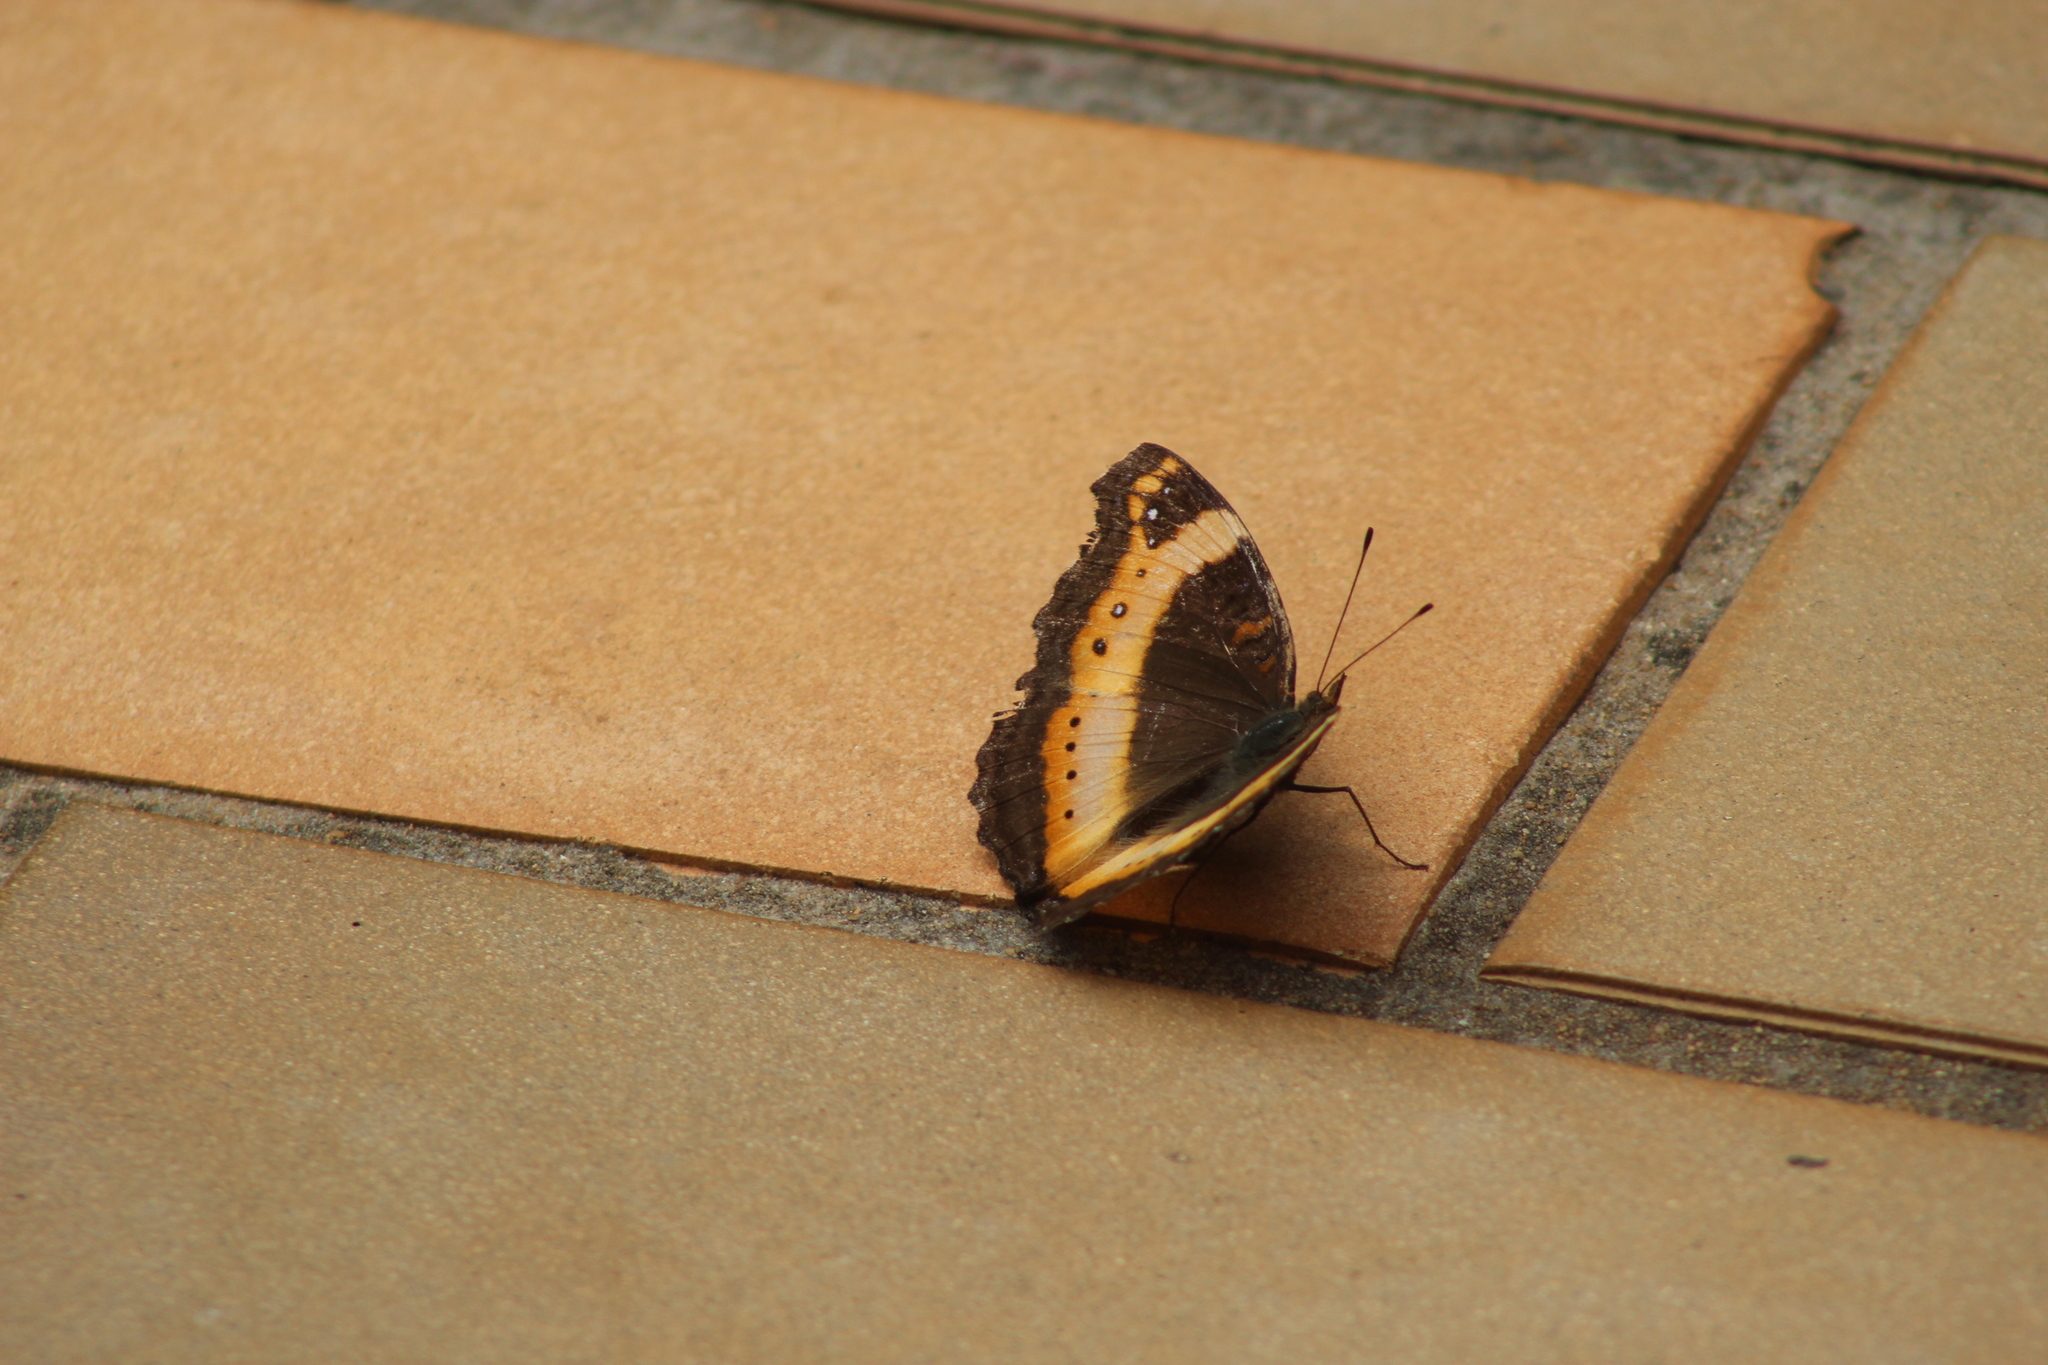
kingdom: Animalia
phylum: Arthropoda
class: Insecta
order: Lepidoptera
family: Nymphalidae
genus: Junonia
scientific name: Junonia archesia
